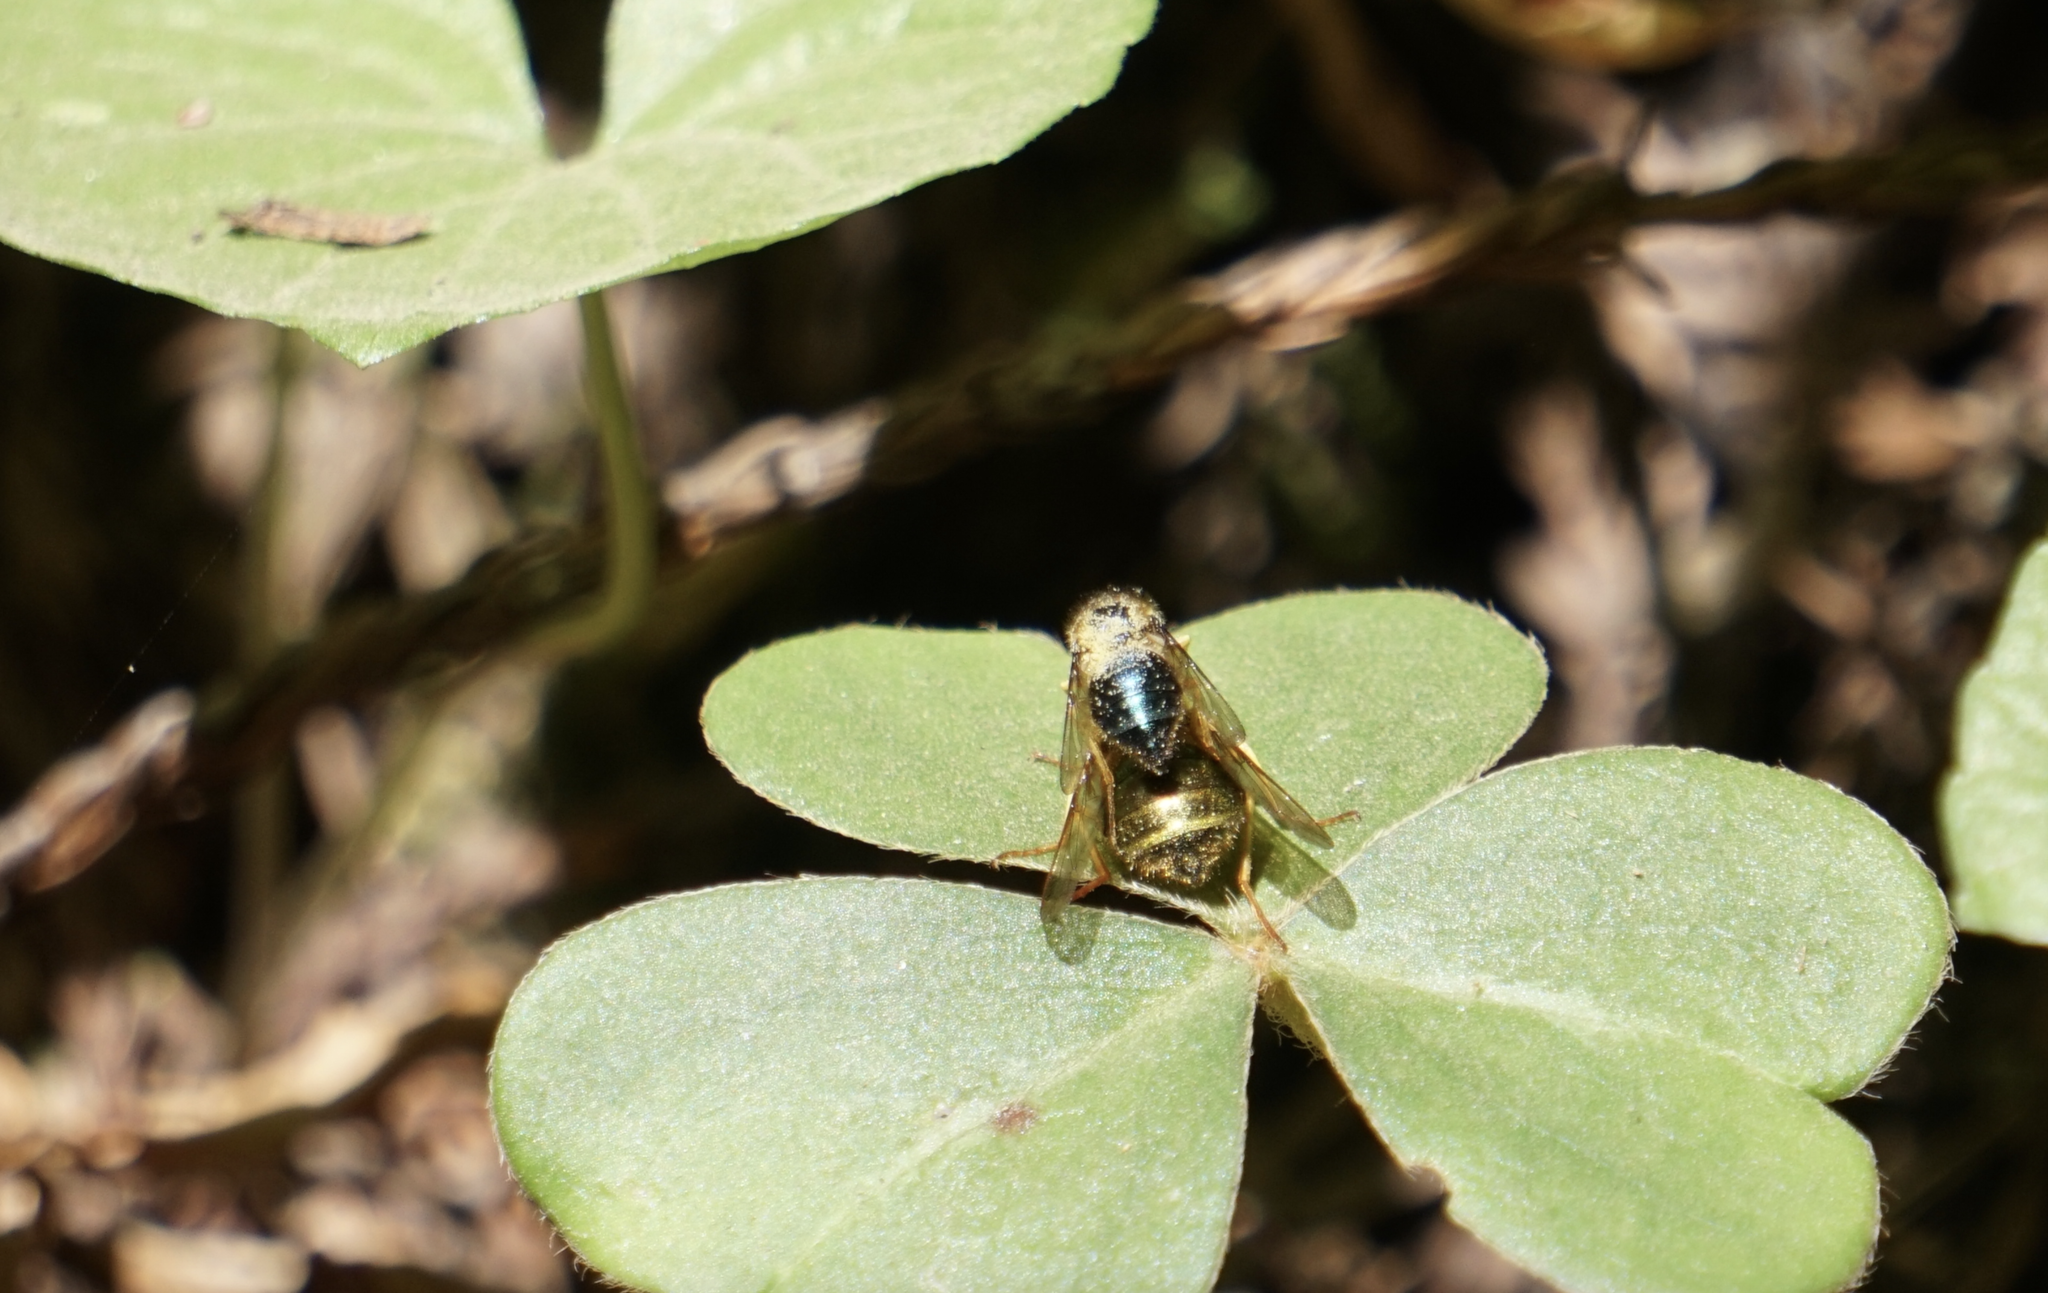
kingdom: Animalia
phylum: Arthropoda
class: Insecta
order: Diptera
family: Acroceridae
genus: Eulonchus
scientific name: Eulonchus sapphirinus
